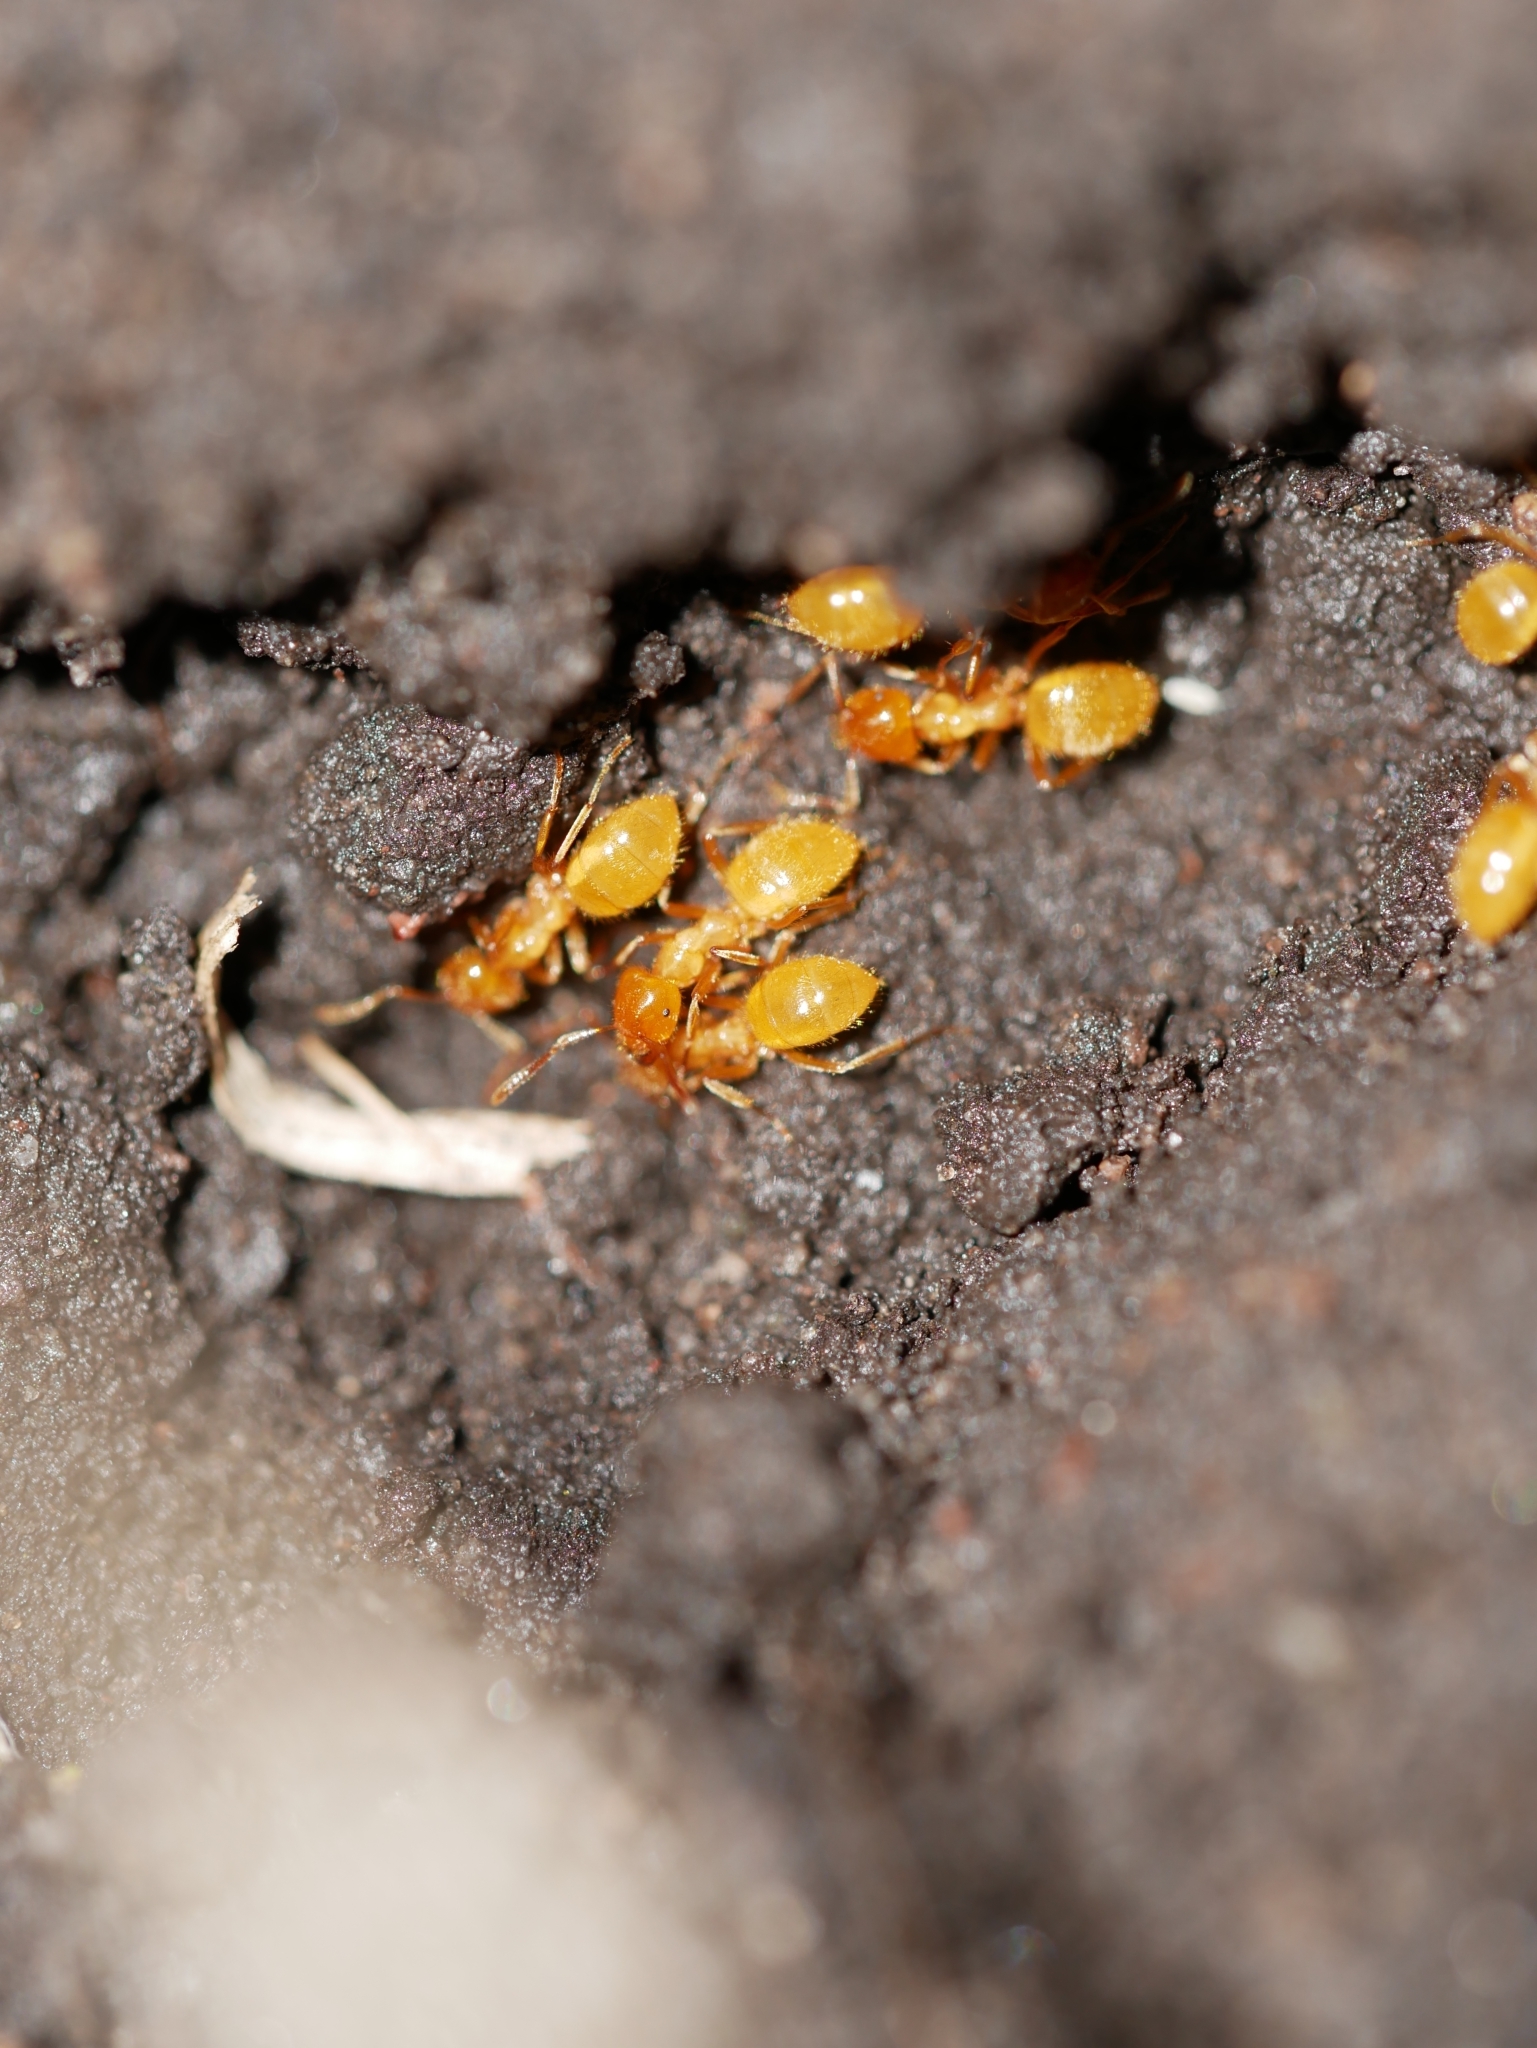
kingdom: Animalia
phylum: Arthropoda
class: Insecta
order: Hymenoptera
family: Formicidae
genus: Acanthomyops
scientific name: Acanthomyops latipes
